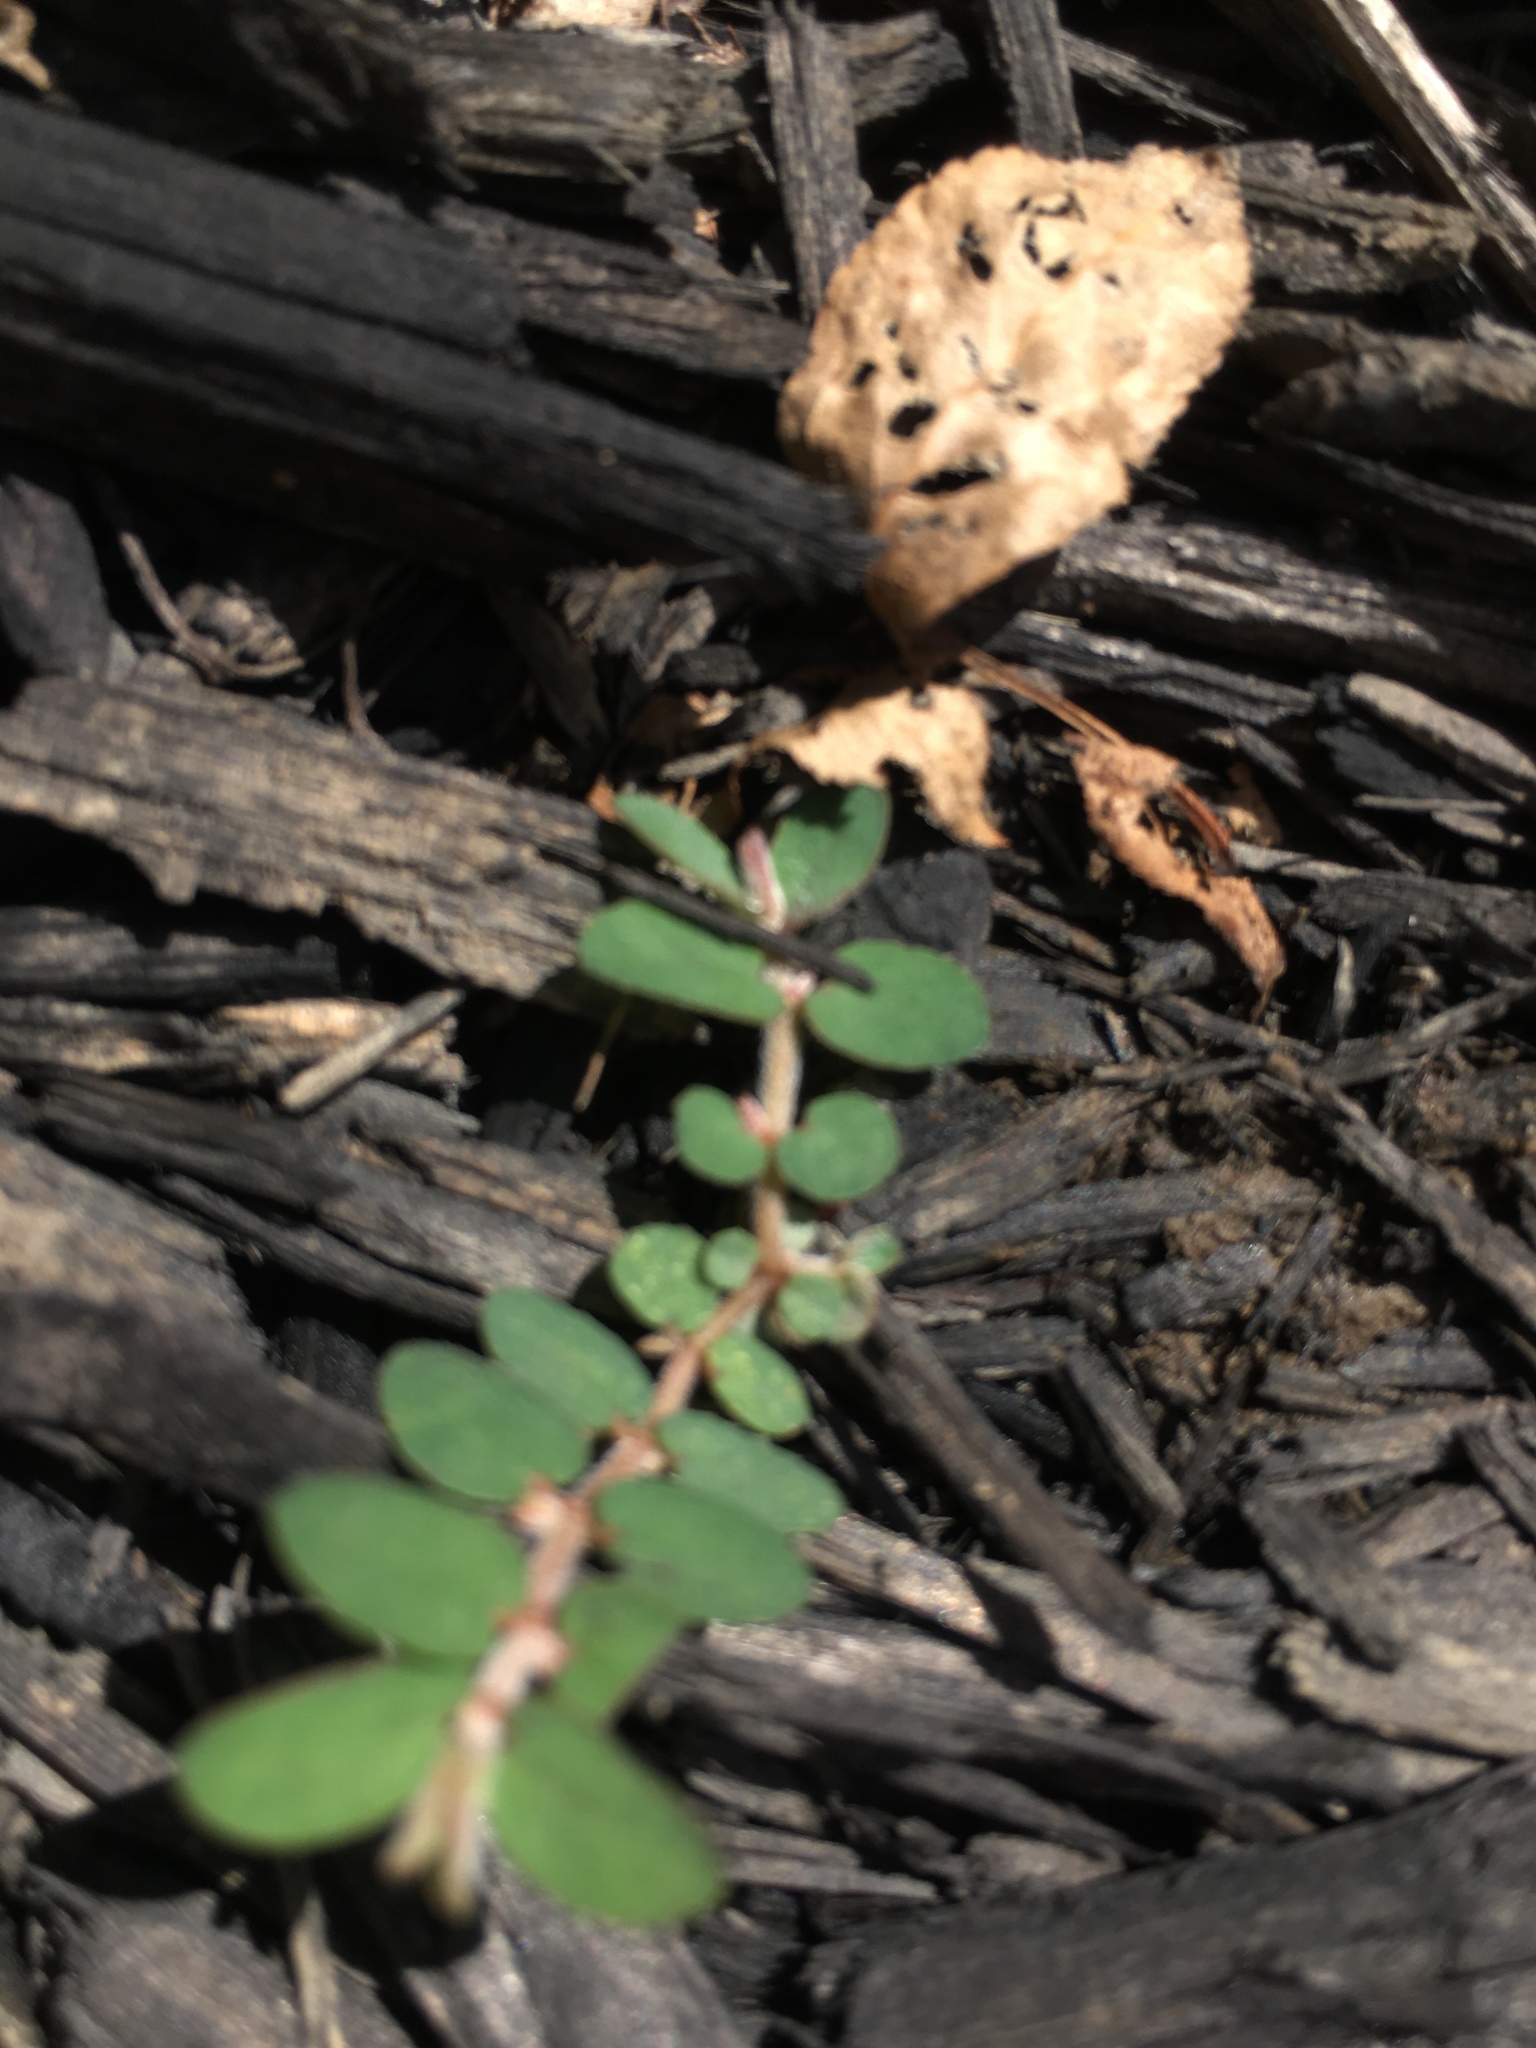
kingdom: Plantae
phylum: Tracheophyta
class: Magnoliopsida
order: Malpighiales
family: Euphorbiaceae
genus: Euphorbia
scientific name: Euphorbia maculata
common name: Spotted spurge
